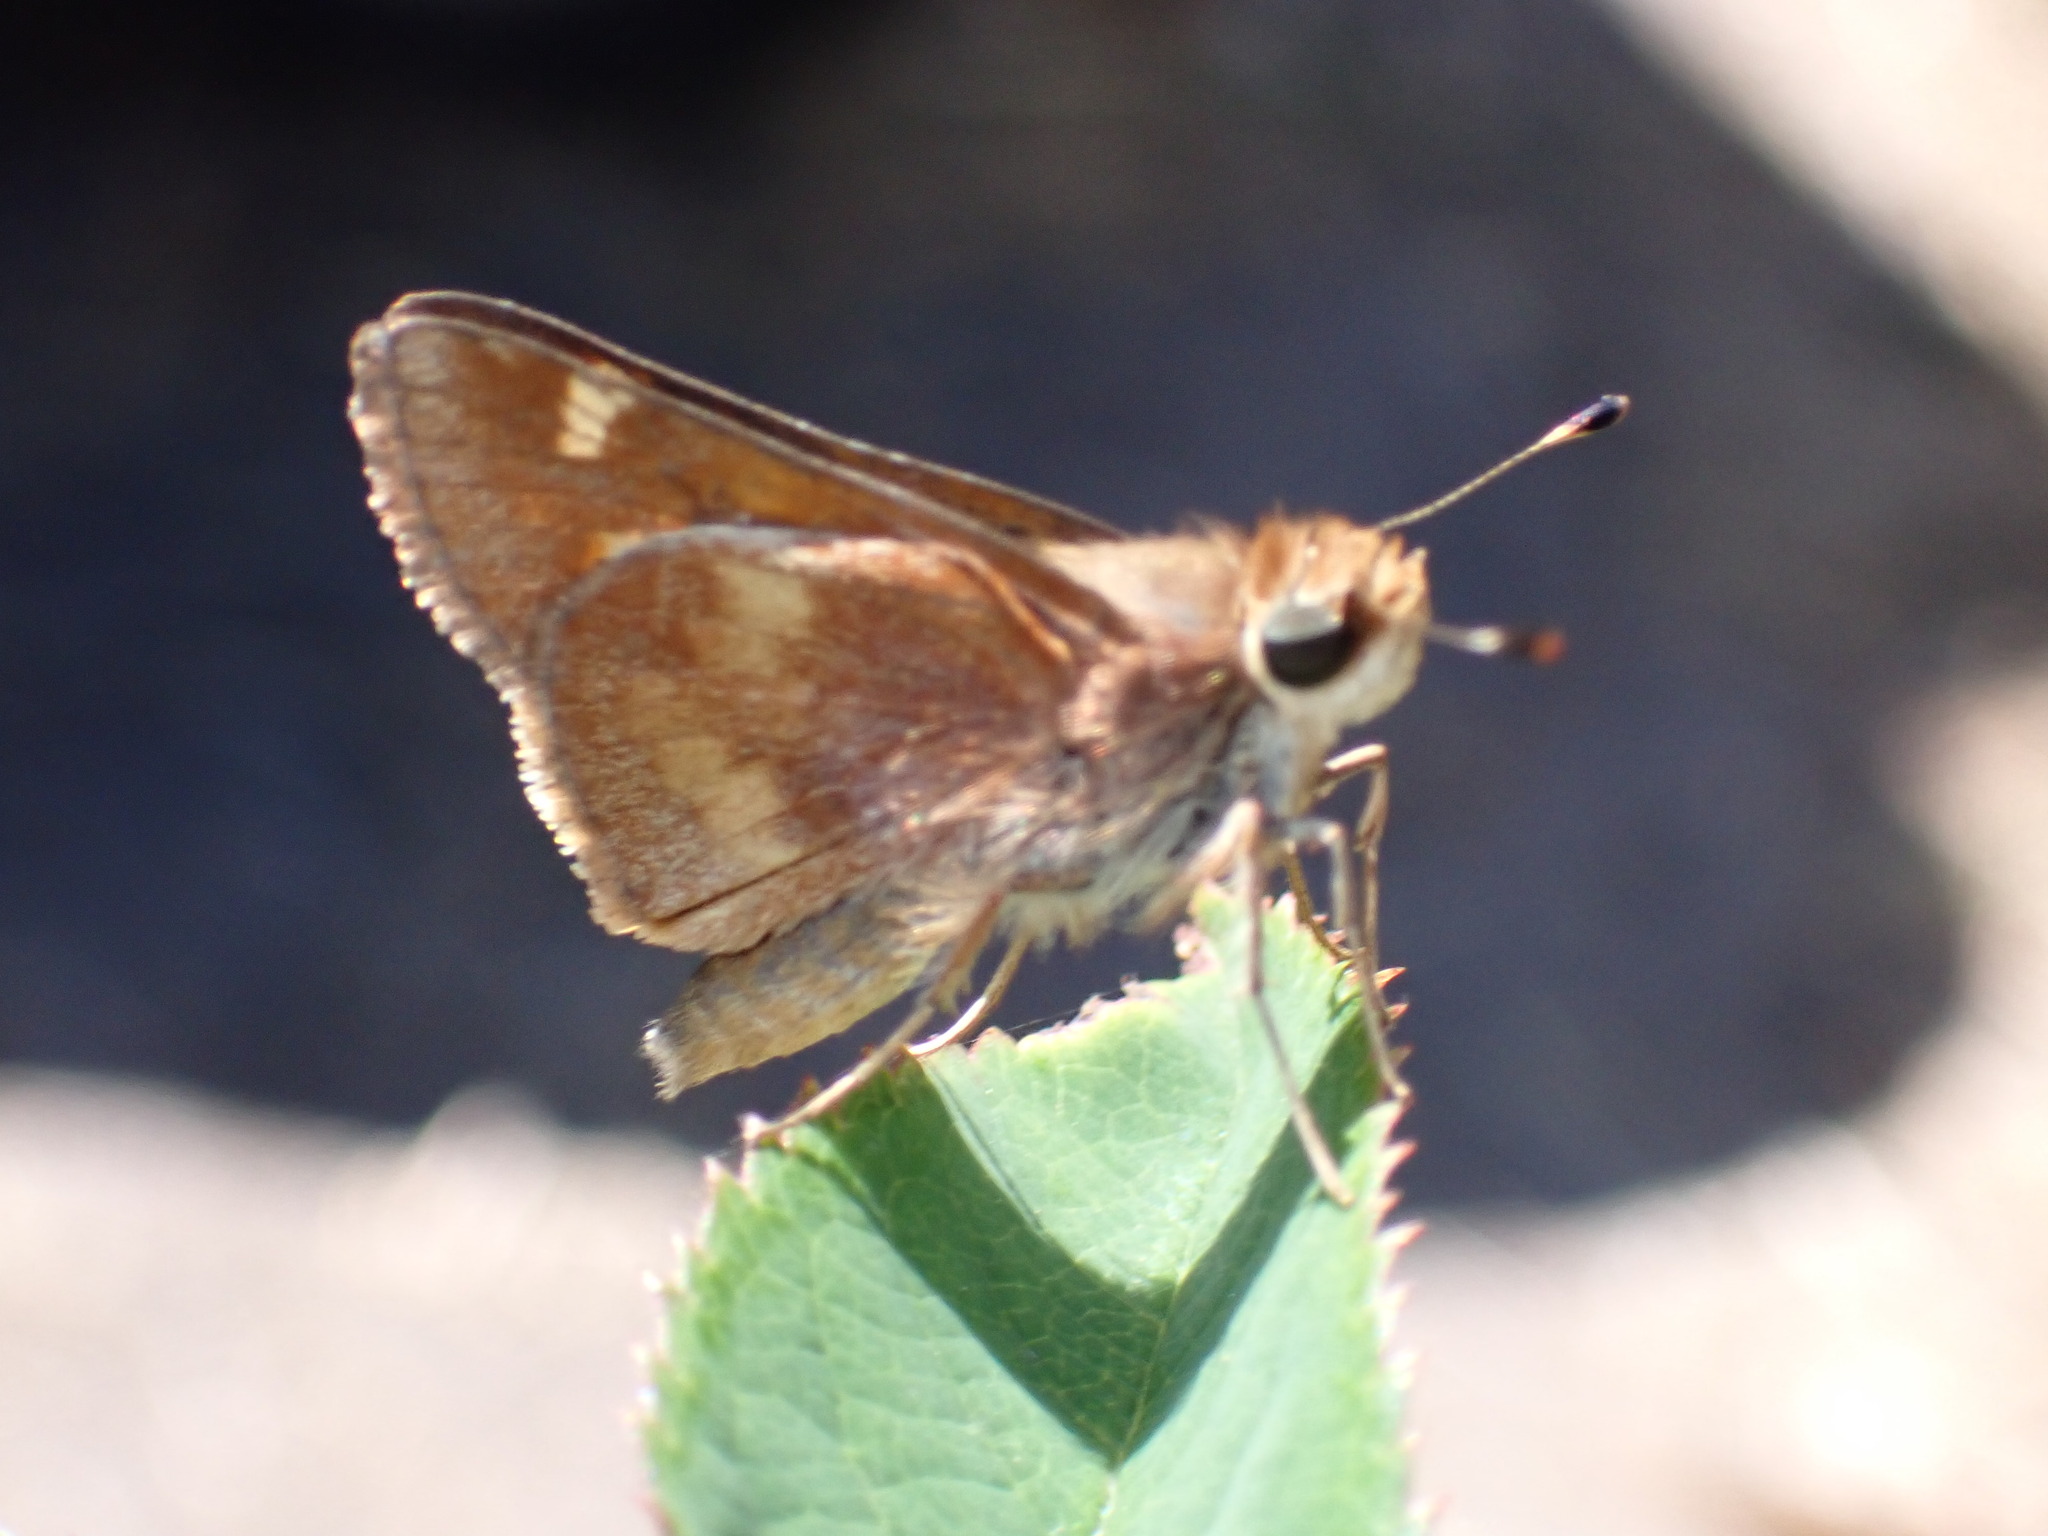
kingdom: Animalia
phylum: Arthropoda
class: Insecta
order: Lepidoptera
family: Hesperiidae
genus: Lon
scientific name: Lon melane
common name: Umber skipper
